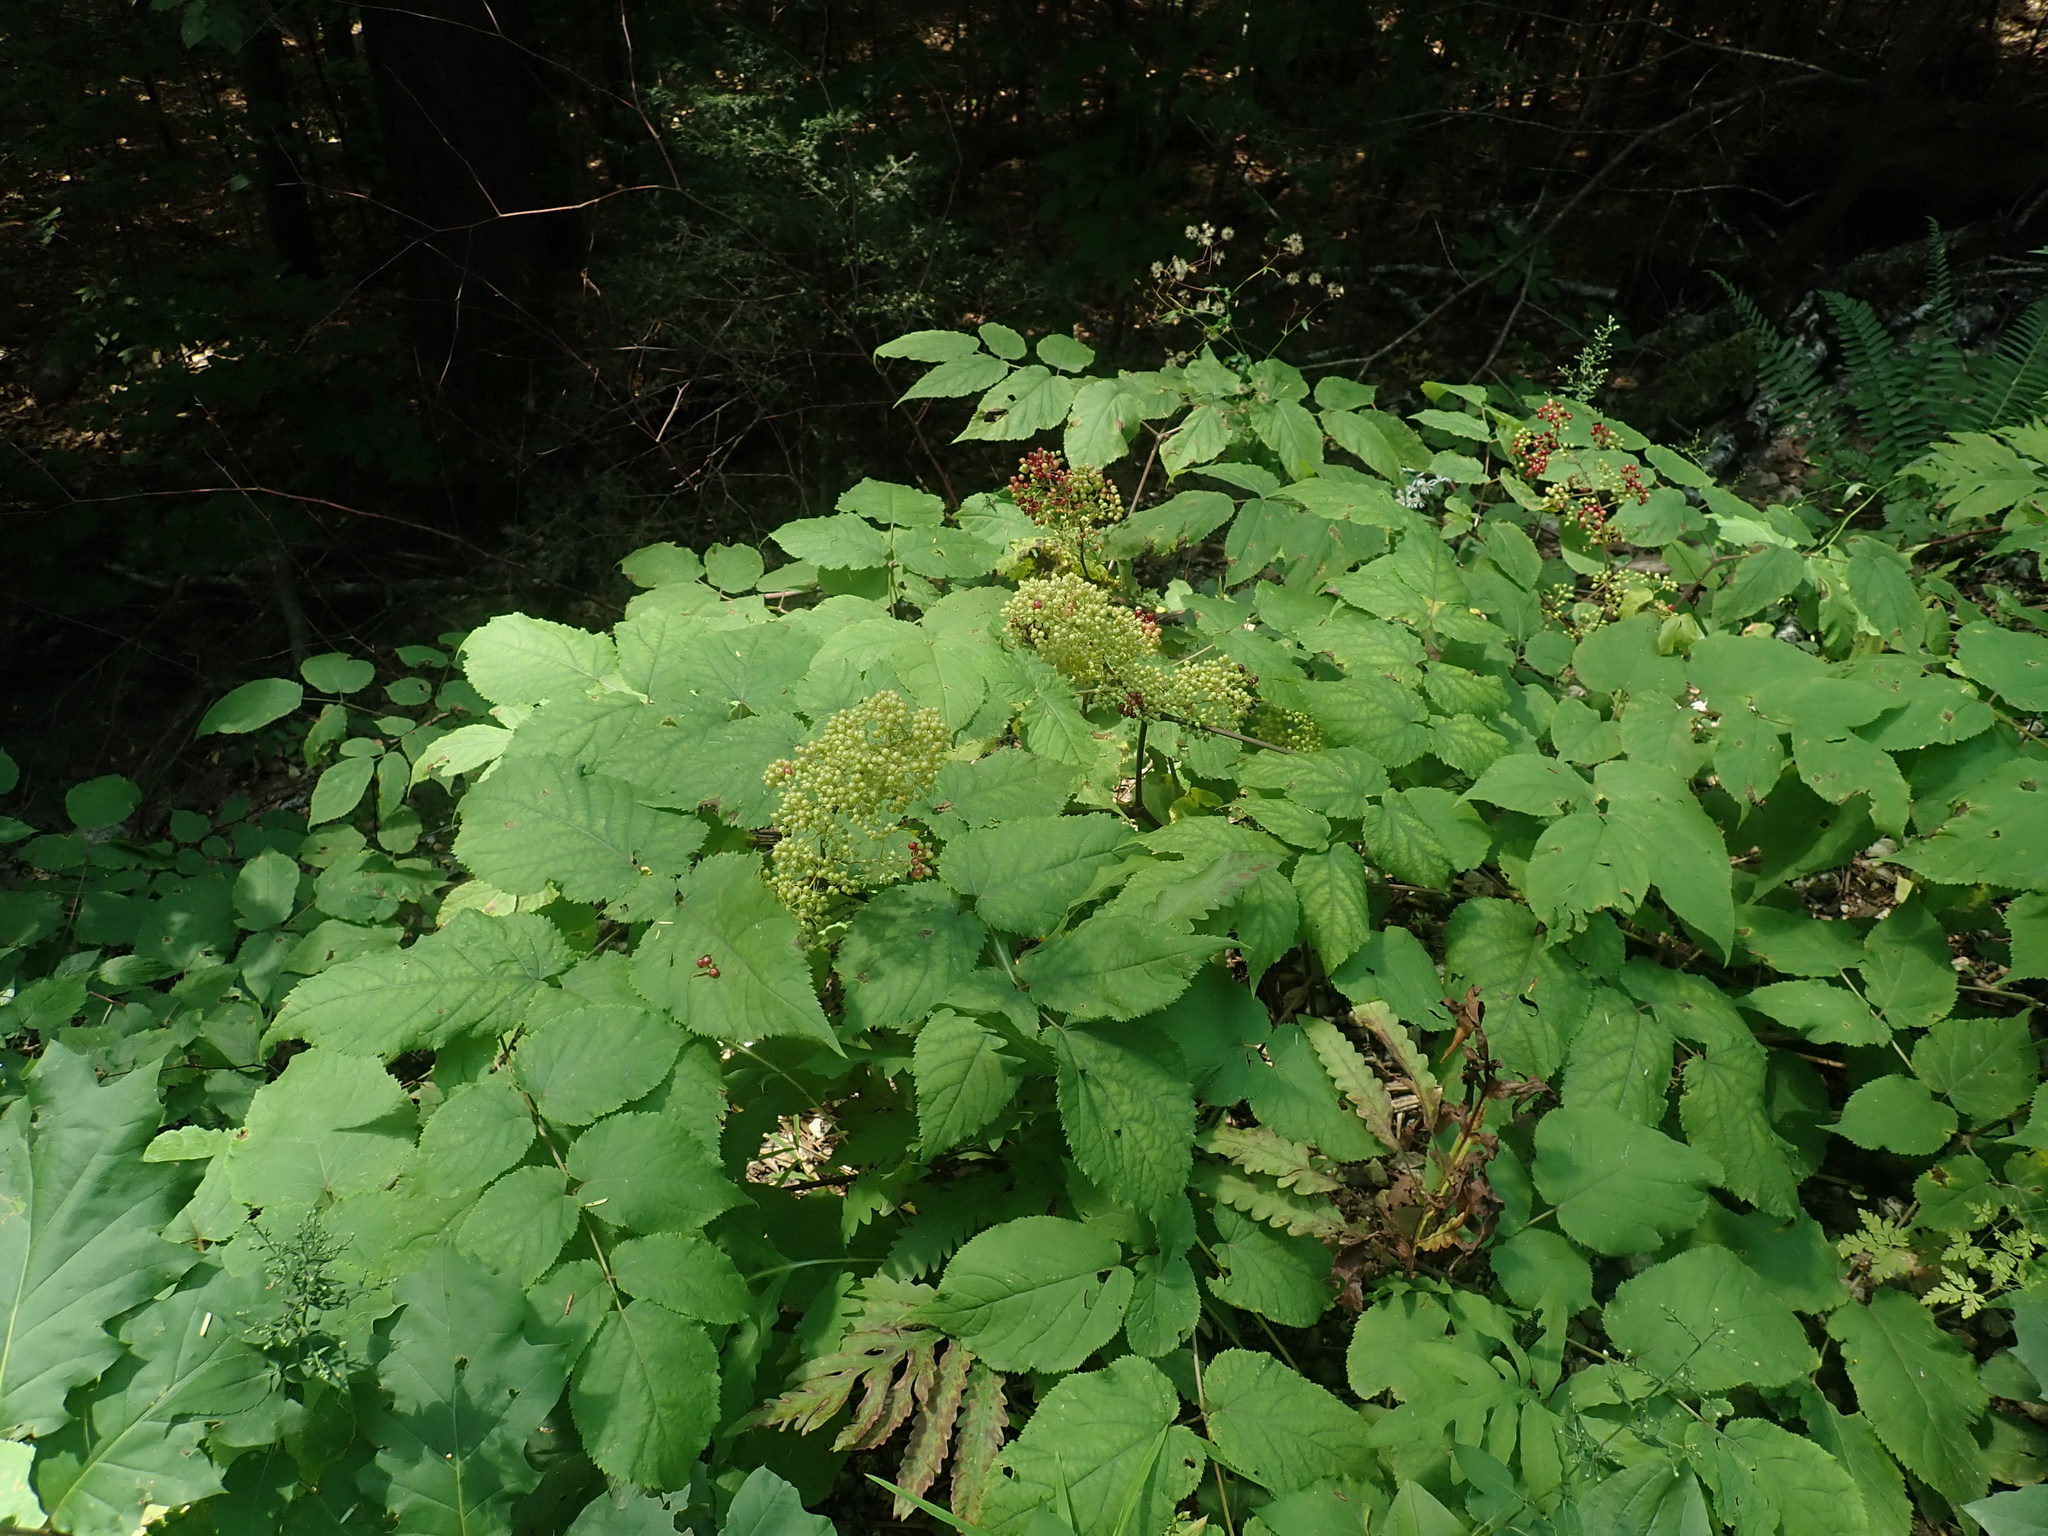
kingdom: Plantae
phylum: Tracheophyta
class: Magnoliopsida
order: Apiales
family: Araliaceae
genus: Aralia
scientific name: Aralia racemosa
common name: American-spikenard
